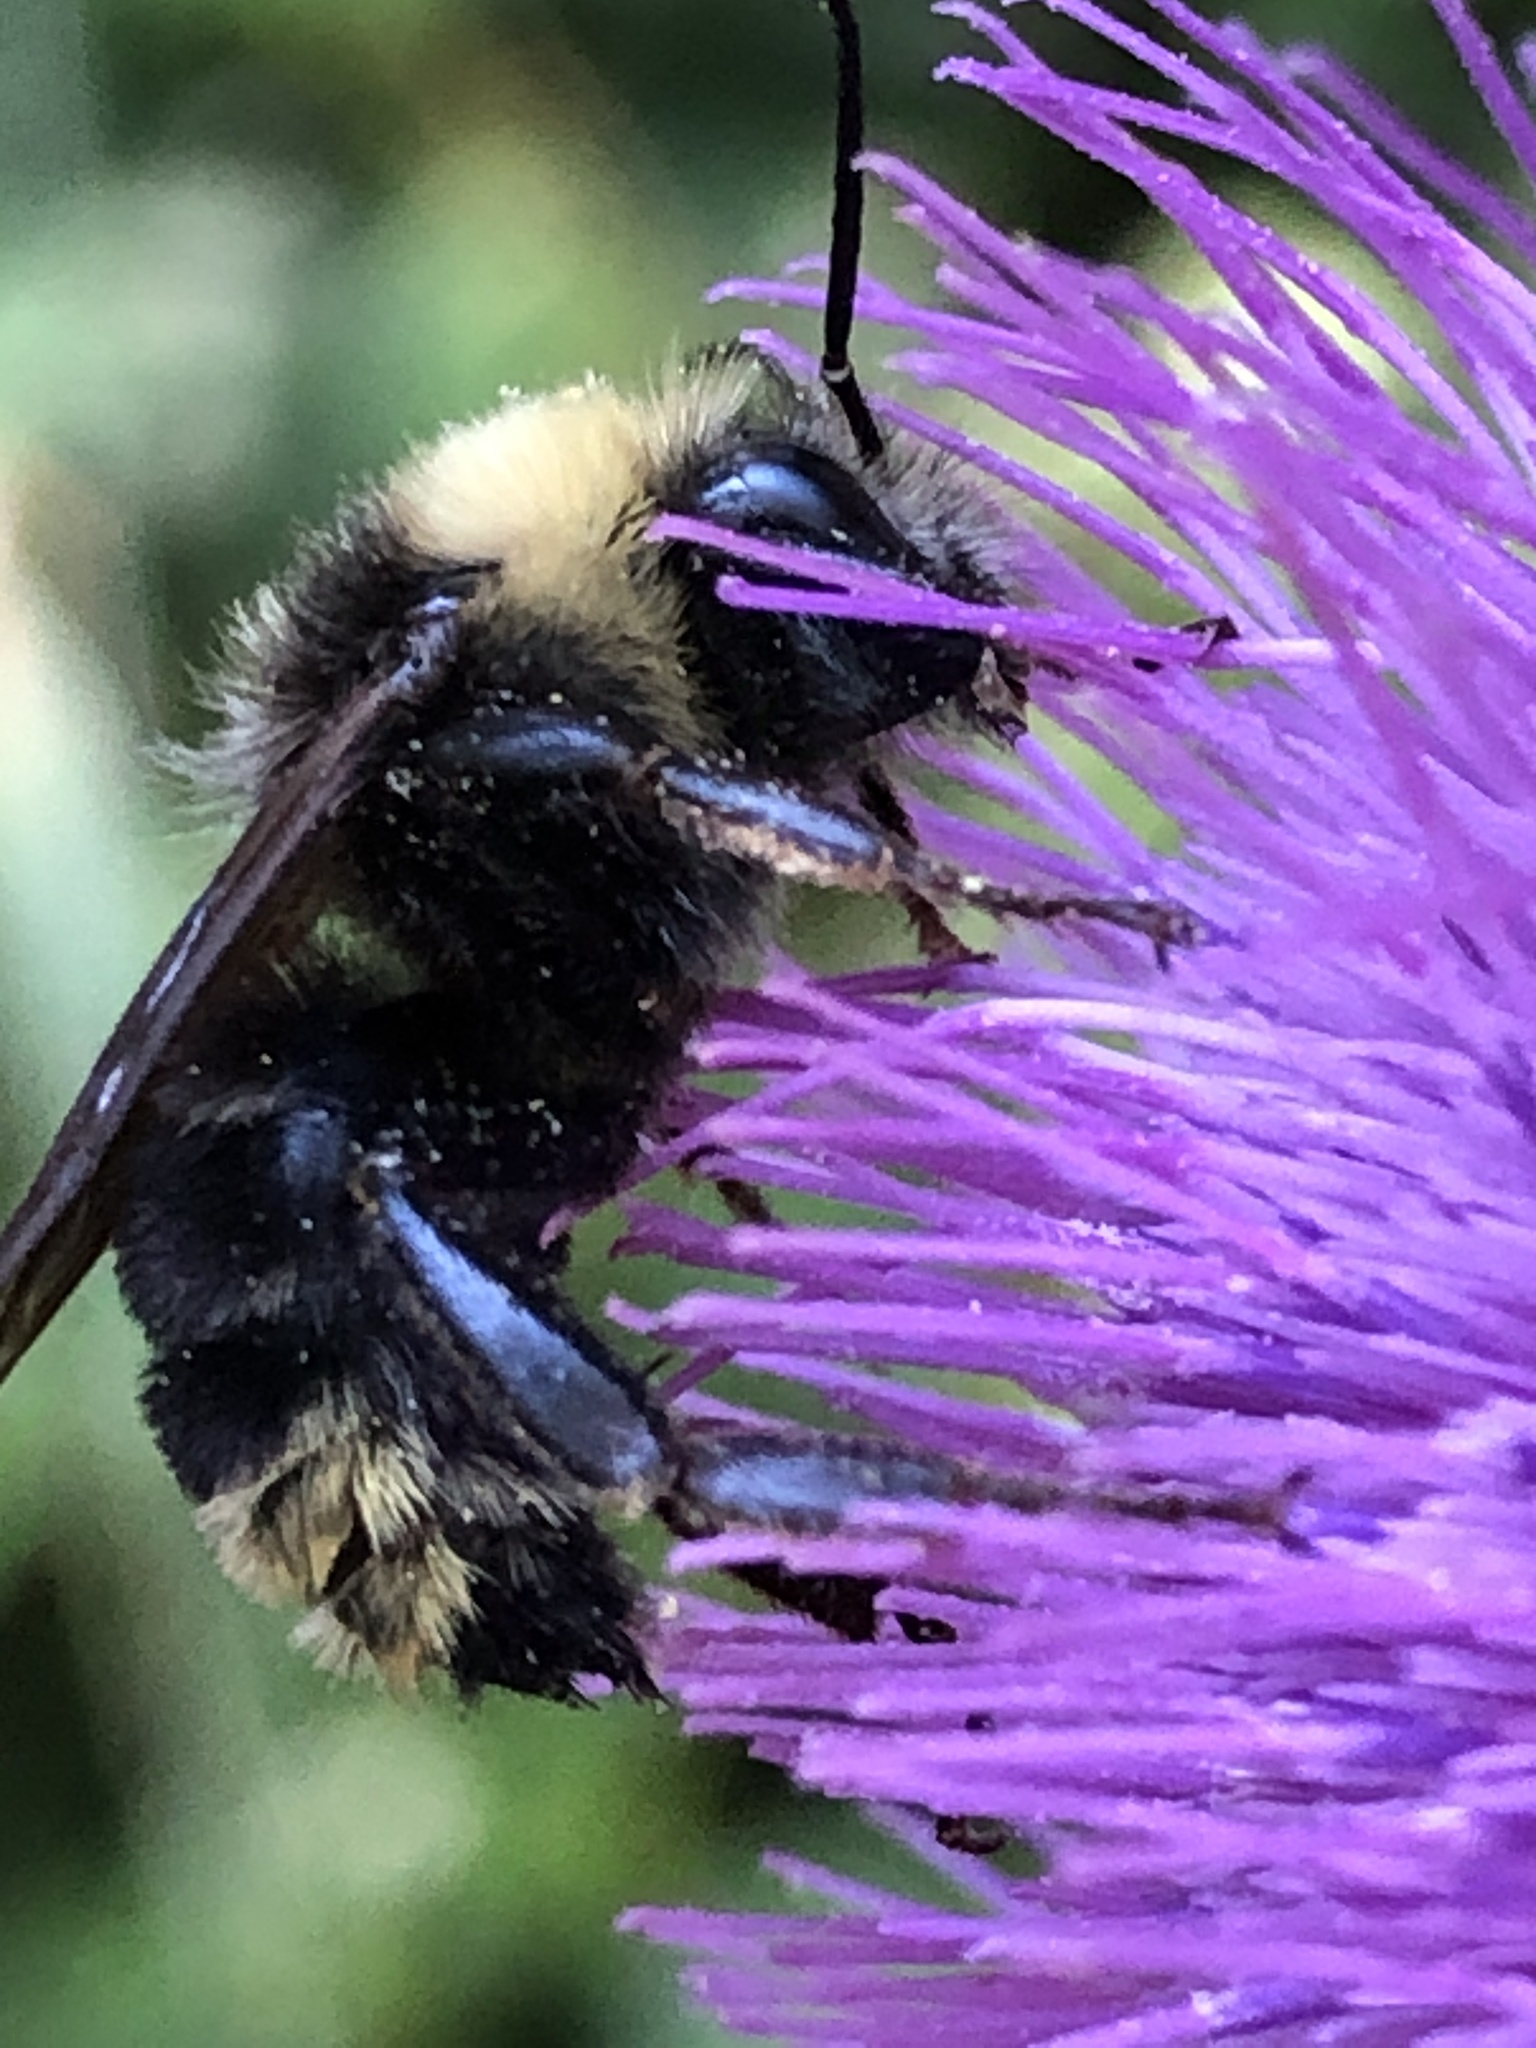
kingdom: Animalia
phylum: Arthropoda
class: Insecta
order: Hymenoptera
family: Apidae
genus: Bombus
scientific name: Bombus californicus
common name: California bumble bee
